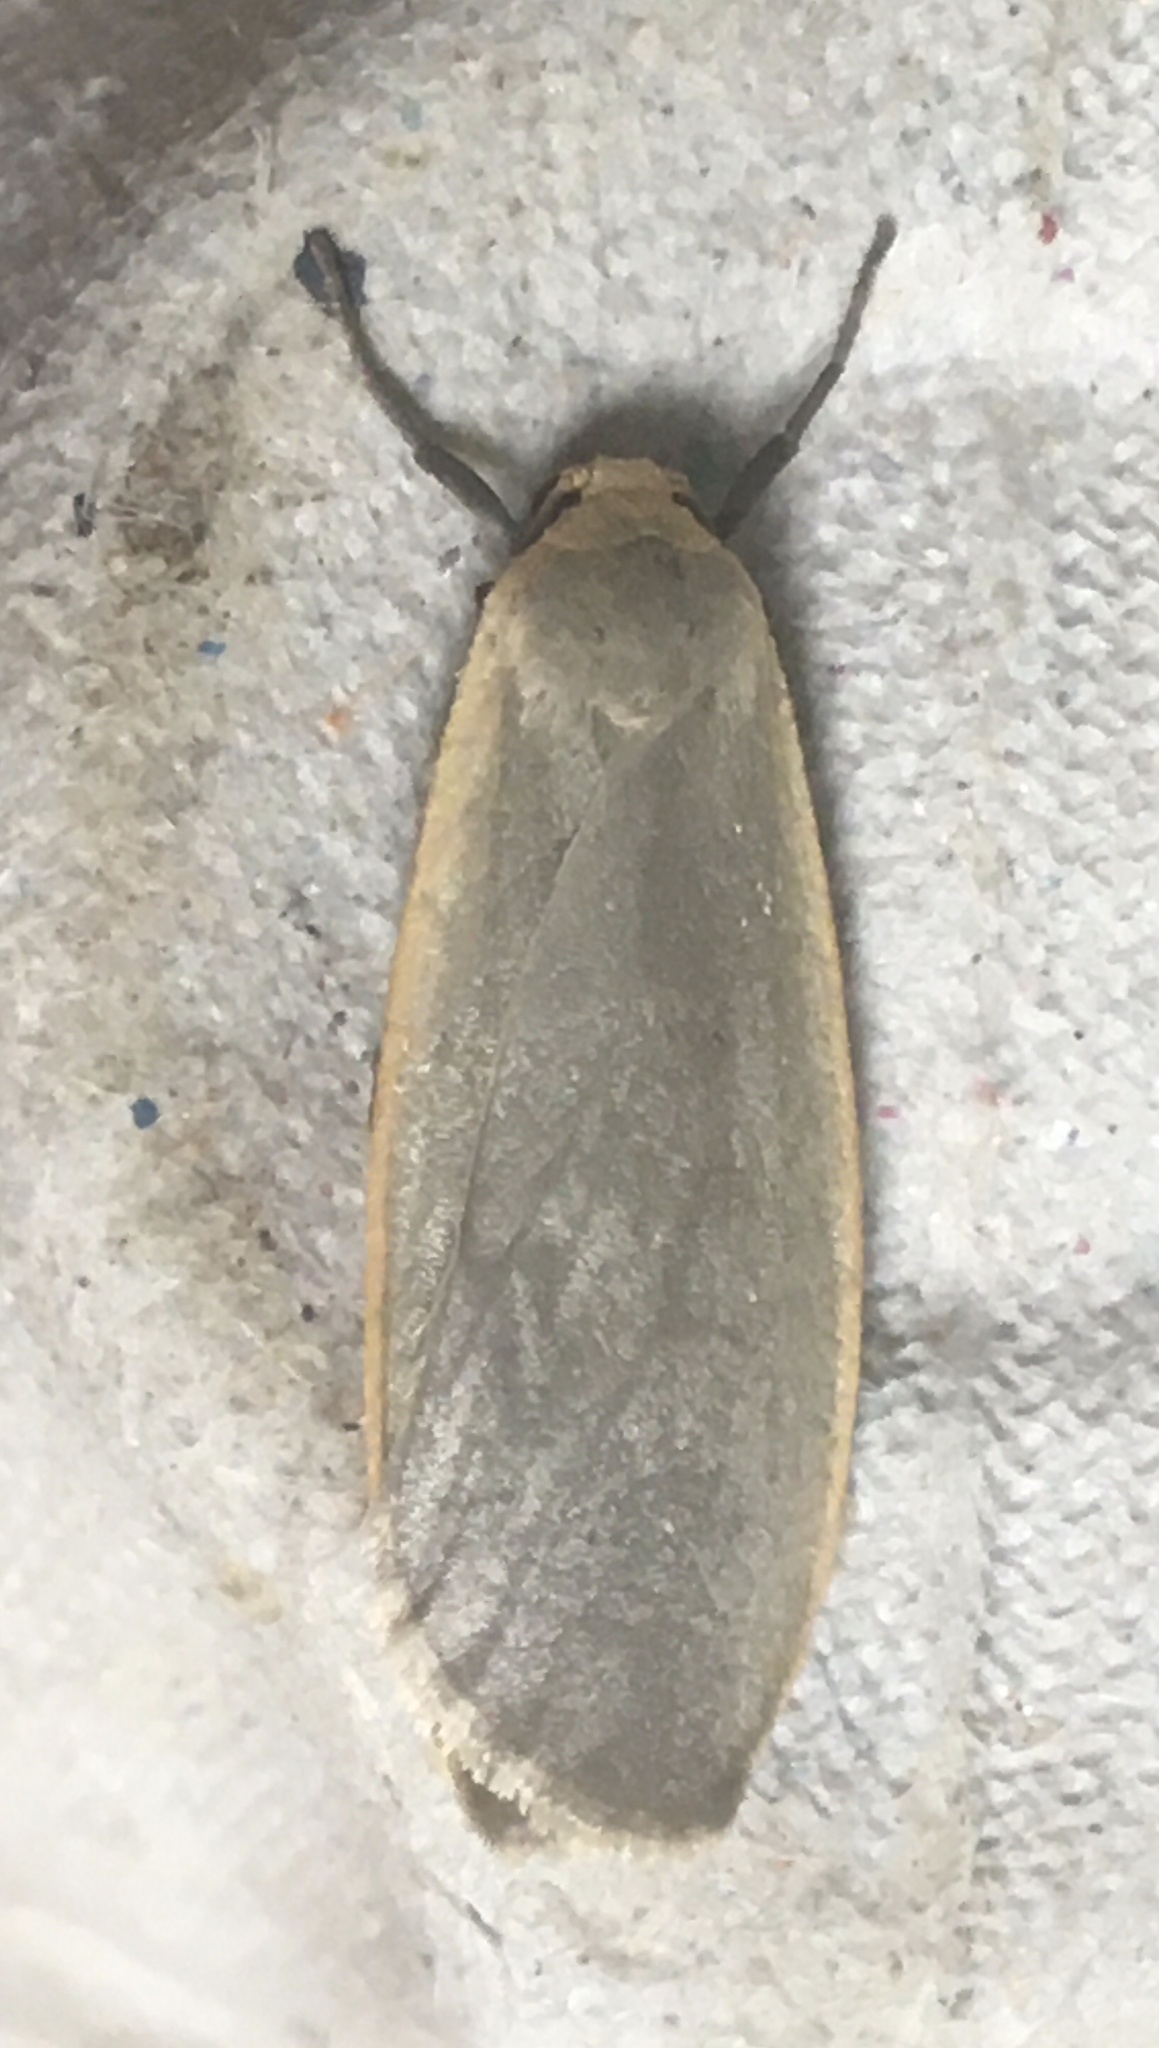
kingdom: Animalia
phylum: Arthropoda
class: Insecta
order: Lepidoptera
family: Erebidae
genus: Collita
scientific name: Collita griseola
